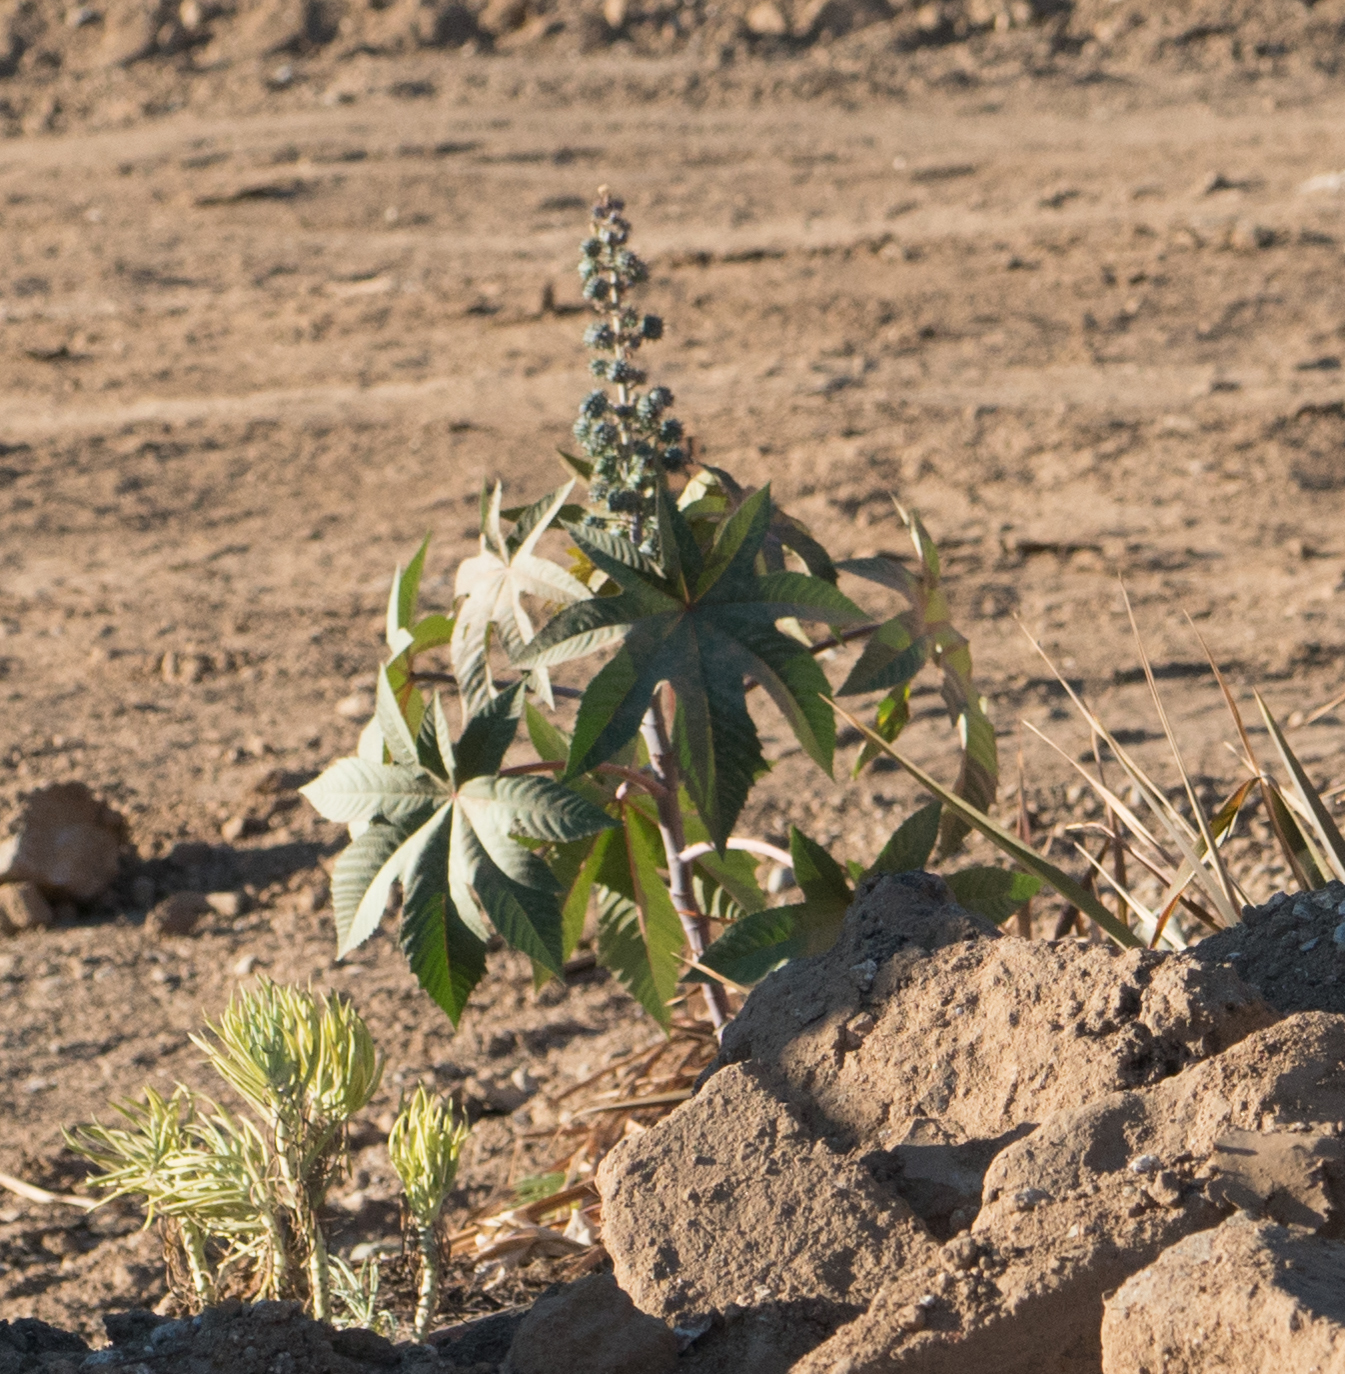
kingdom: Plantae
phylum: Tracheophyta
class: Magnoliopsida
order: Malpighiales
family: Euphorbiaceae
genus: Ricinus
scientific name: Ricinus communis
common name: Castor-oil-plant
